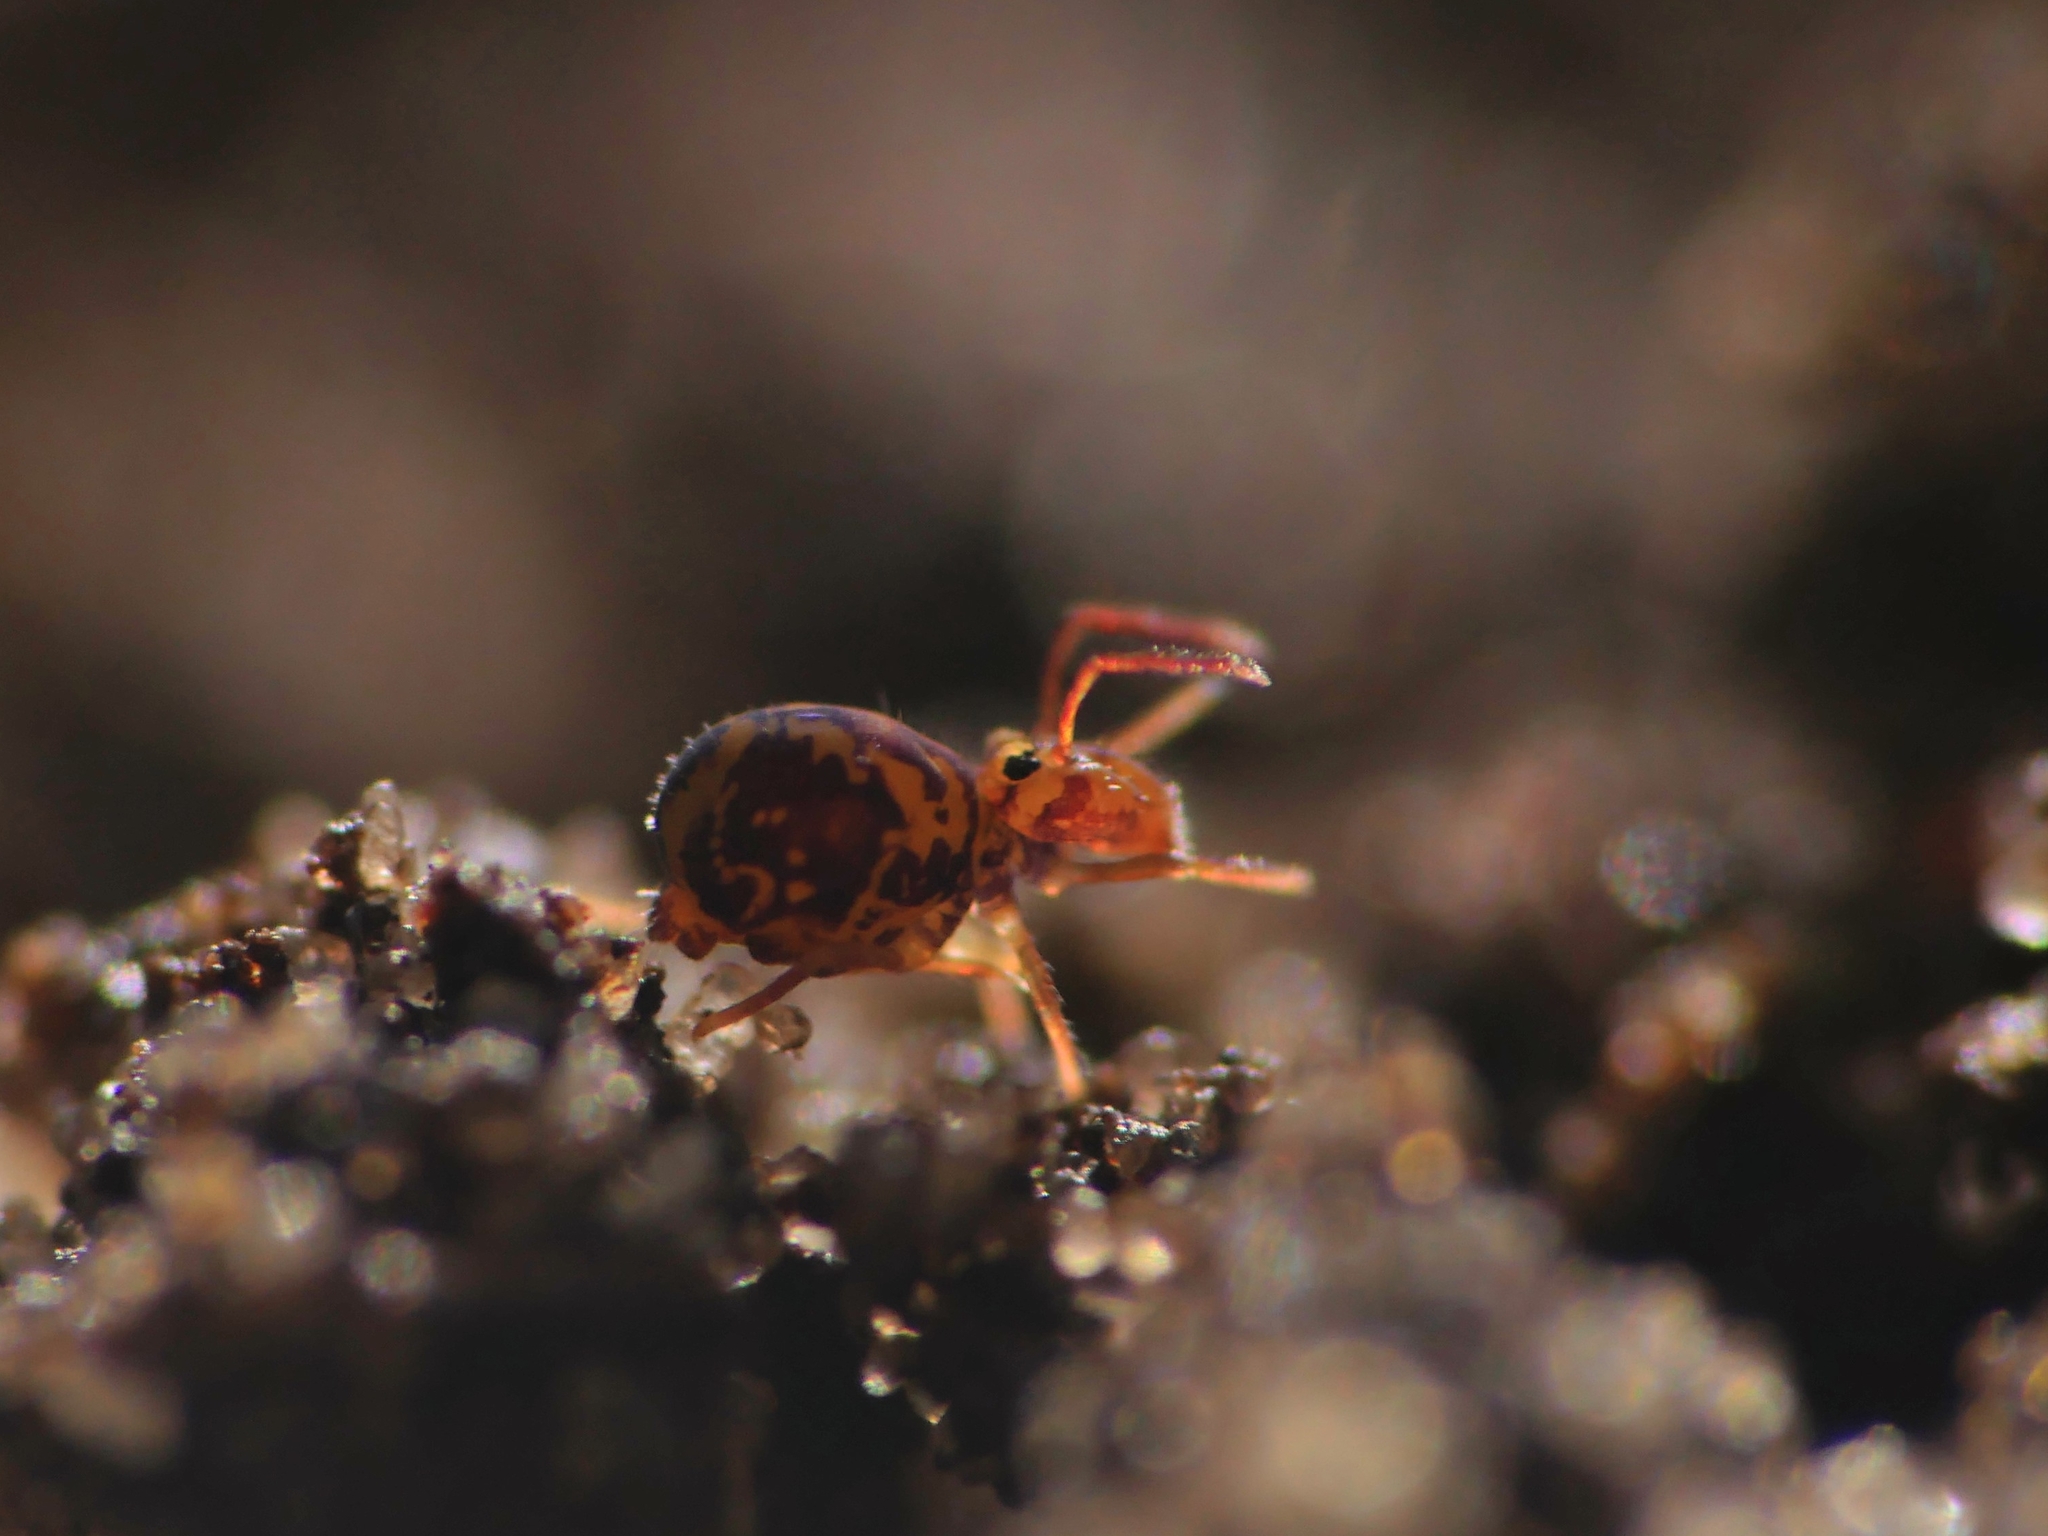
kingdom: Animalia
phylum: Arthropoda
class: Collembola
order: Symphypleona
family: Dicyrtomidae
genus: Dicyrtomina
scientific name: Dicyrtomina ornata
